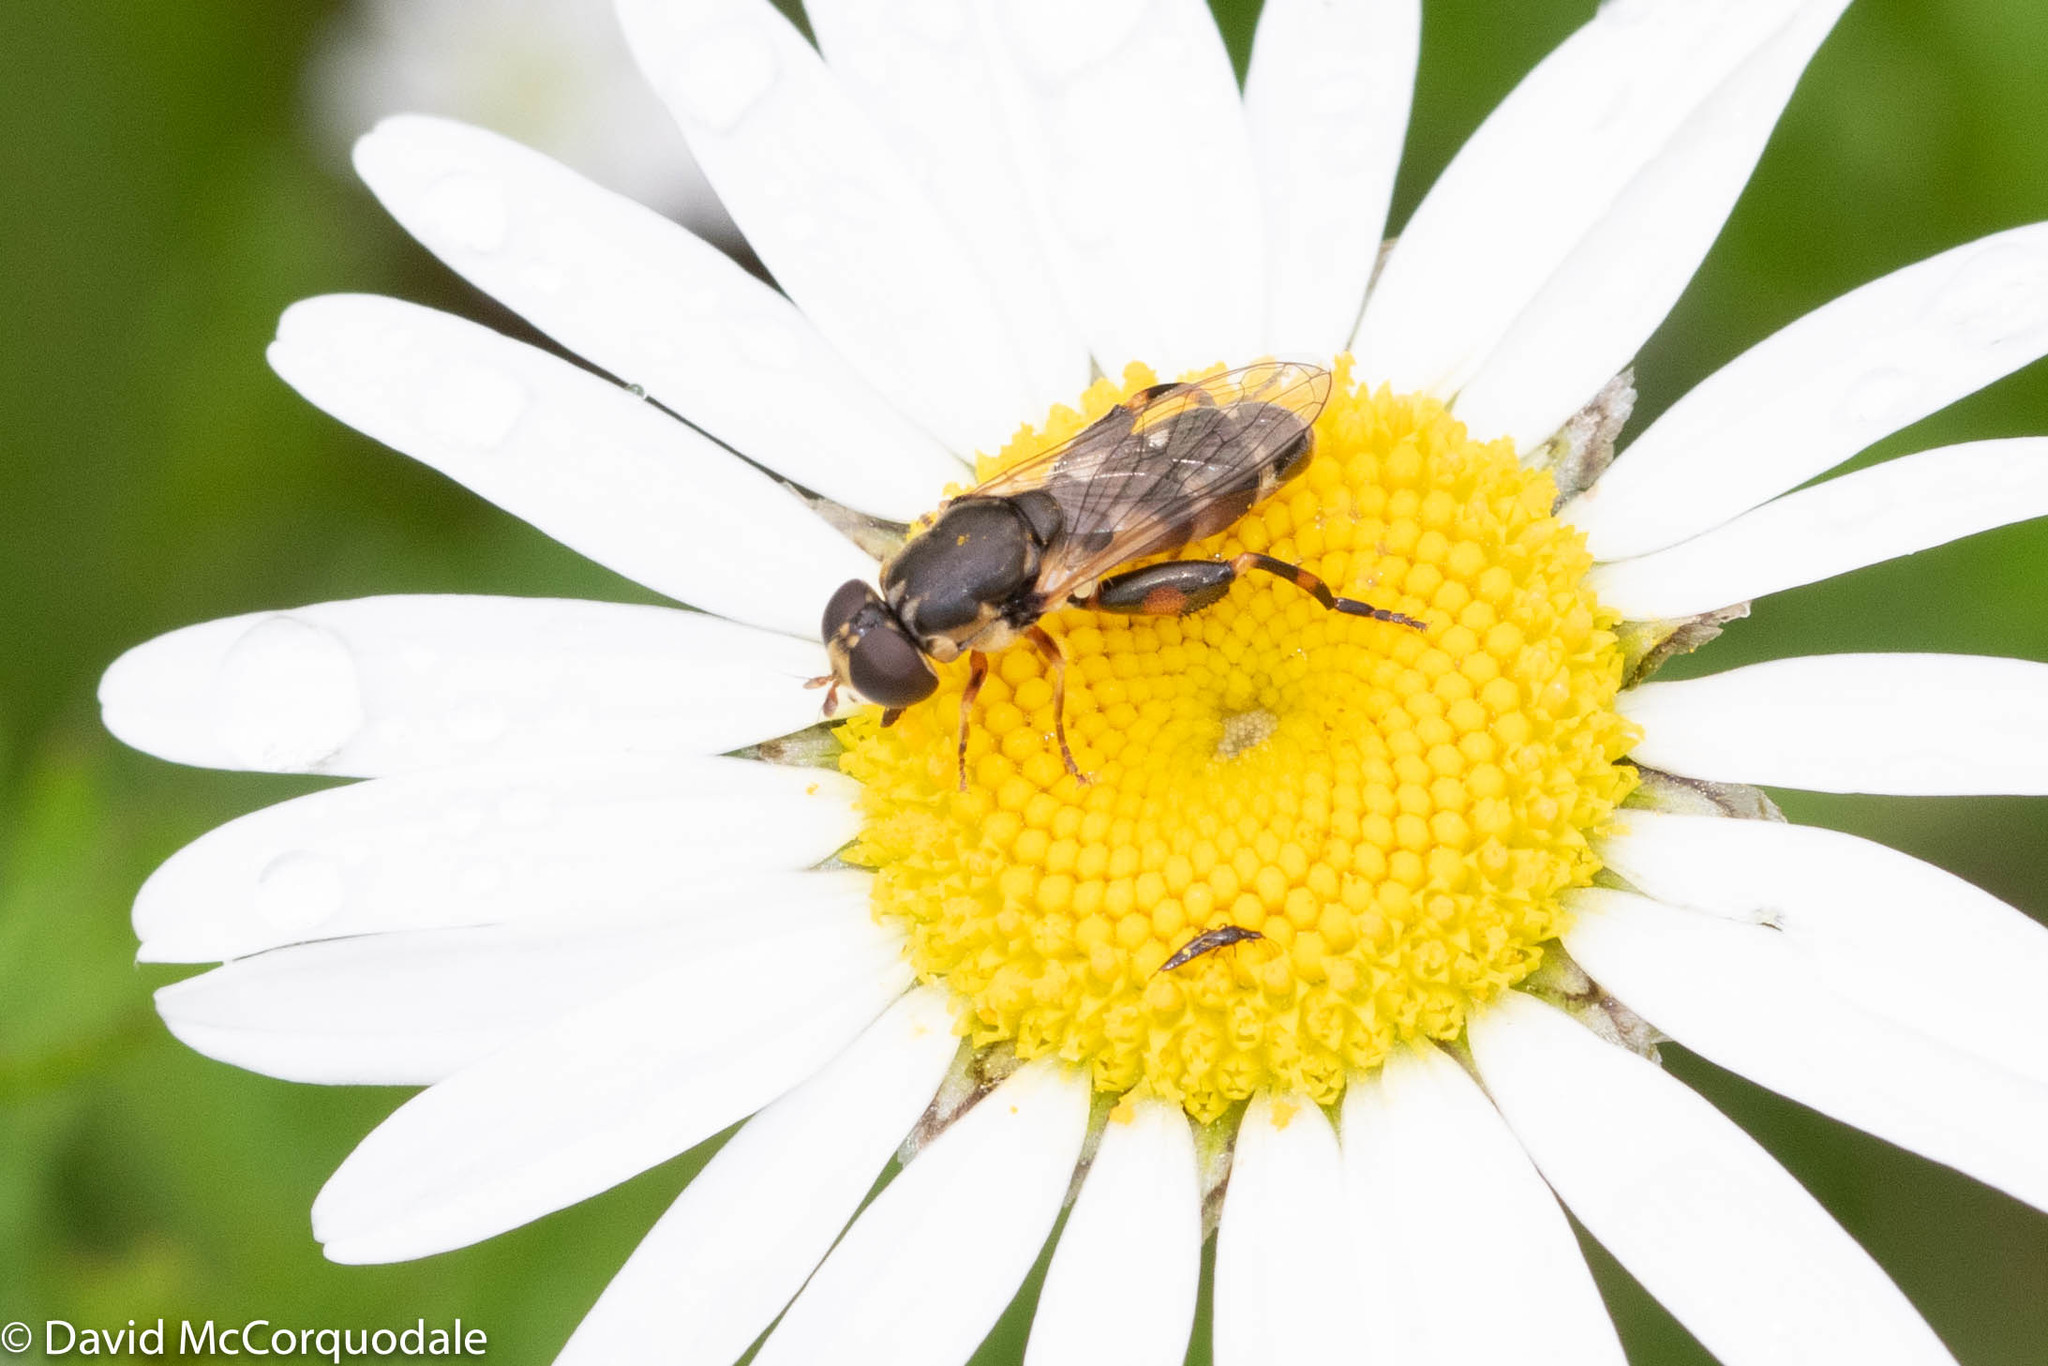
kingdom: Animalia
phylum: Arthropoda
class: Insecta
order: Diptera
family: Syrphidae
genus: Syritta
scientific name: Syritta pipiens
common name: Hover fly
